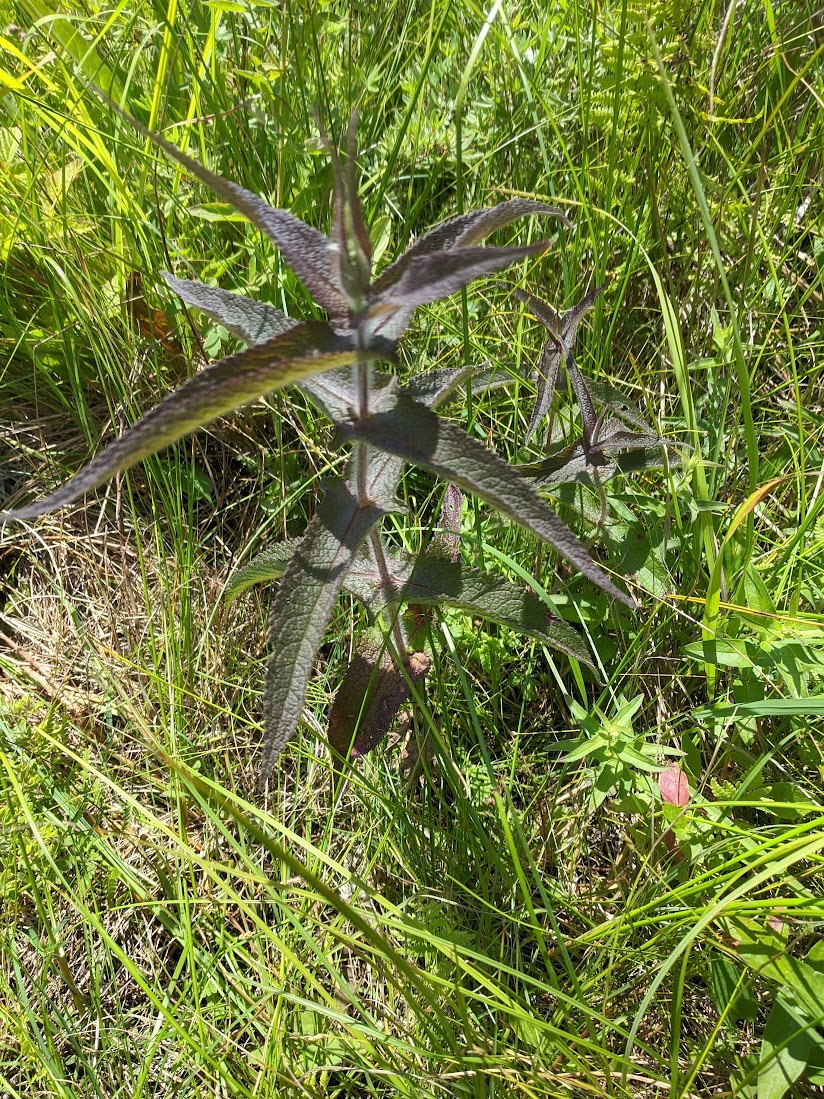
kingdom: Plantae
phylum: Tracheophyta
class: Magnoliopsida
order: Asterales
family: Asteraceae
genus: Eupatorium
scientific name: Eupatorium perfoliatum
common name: Boneset
